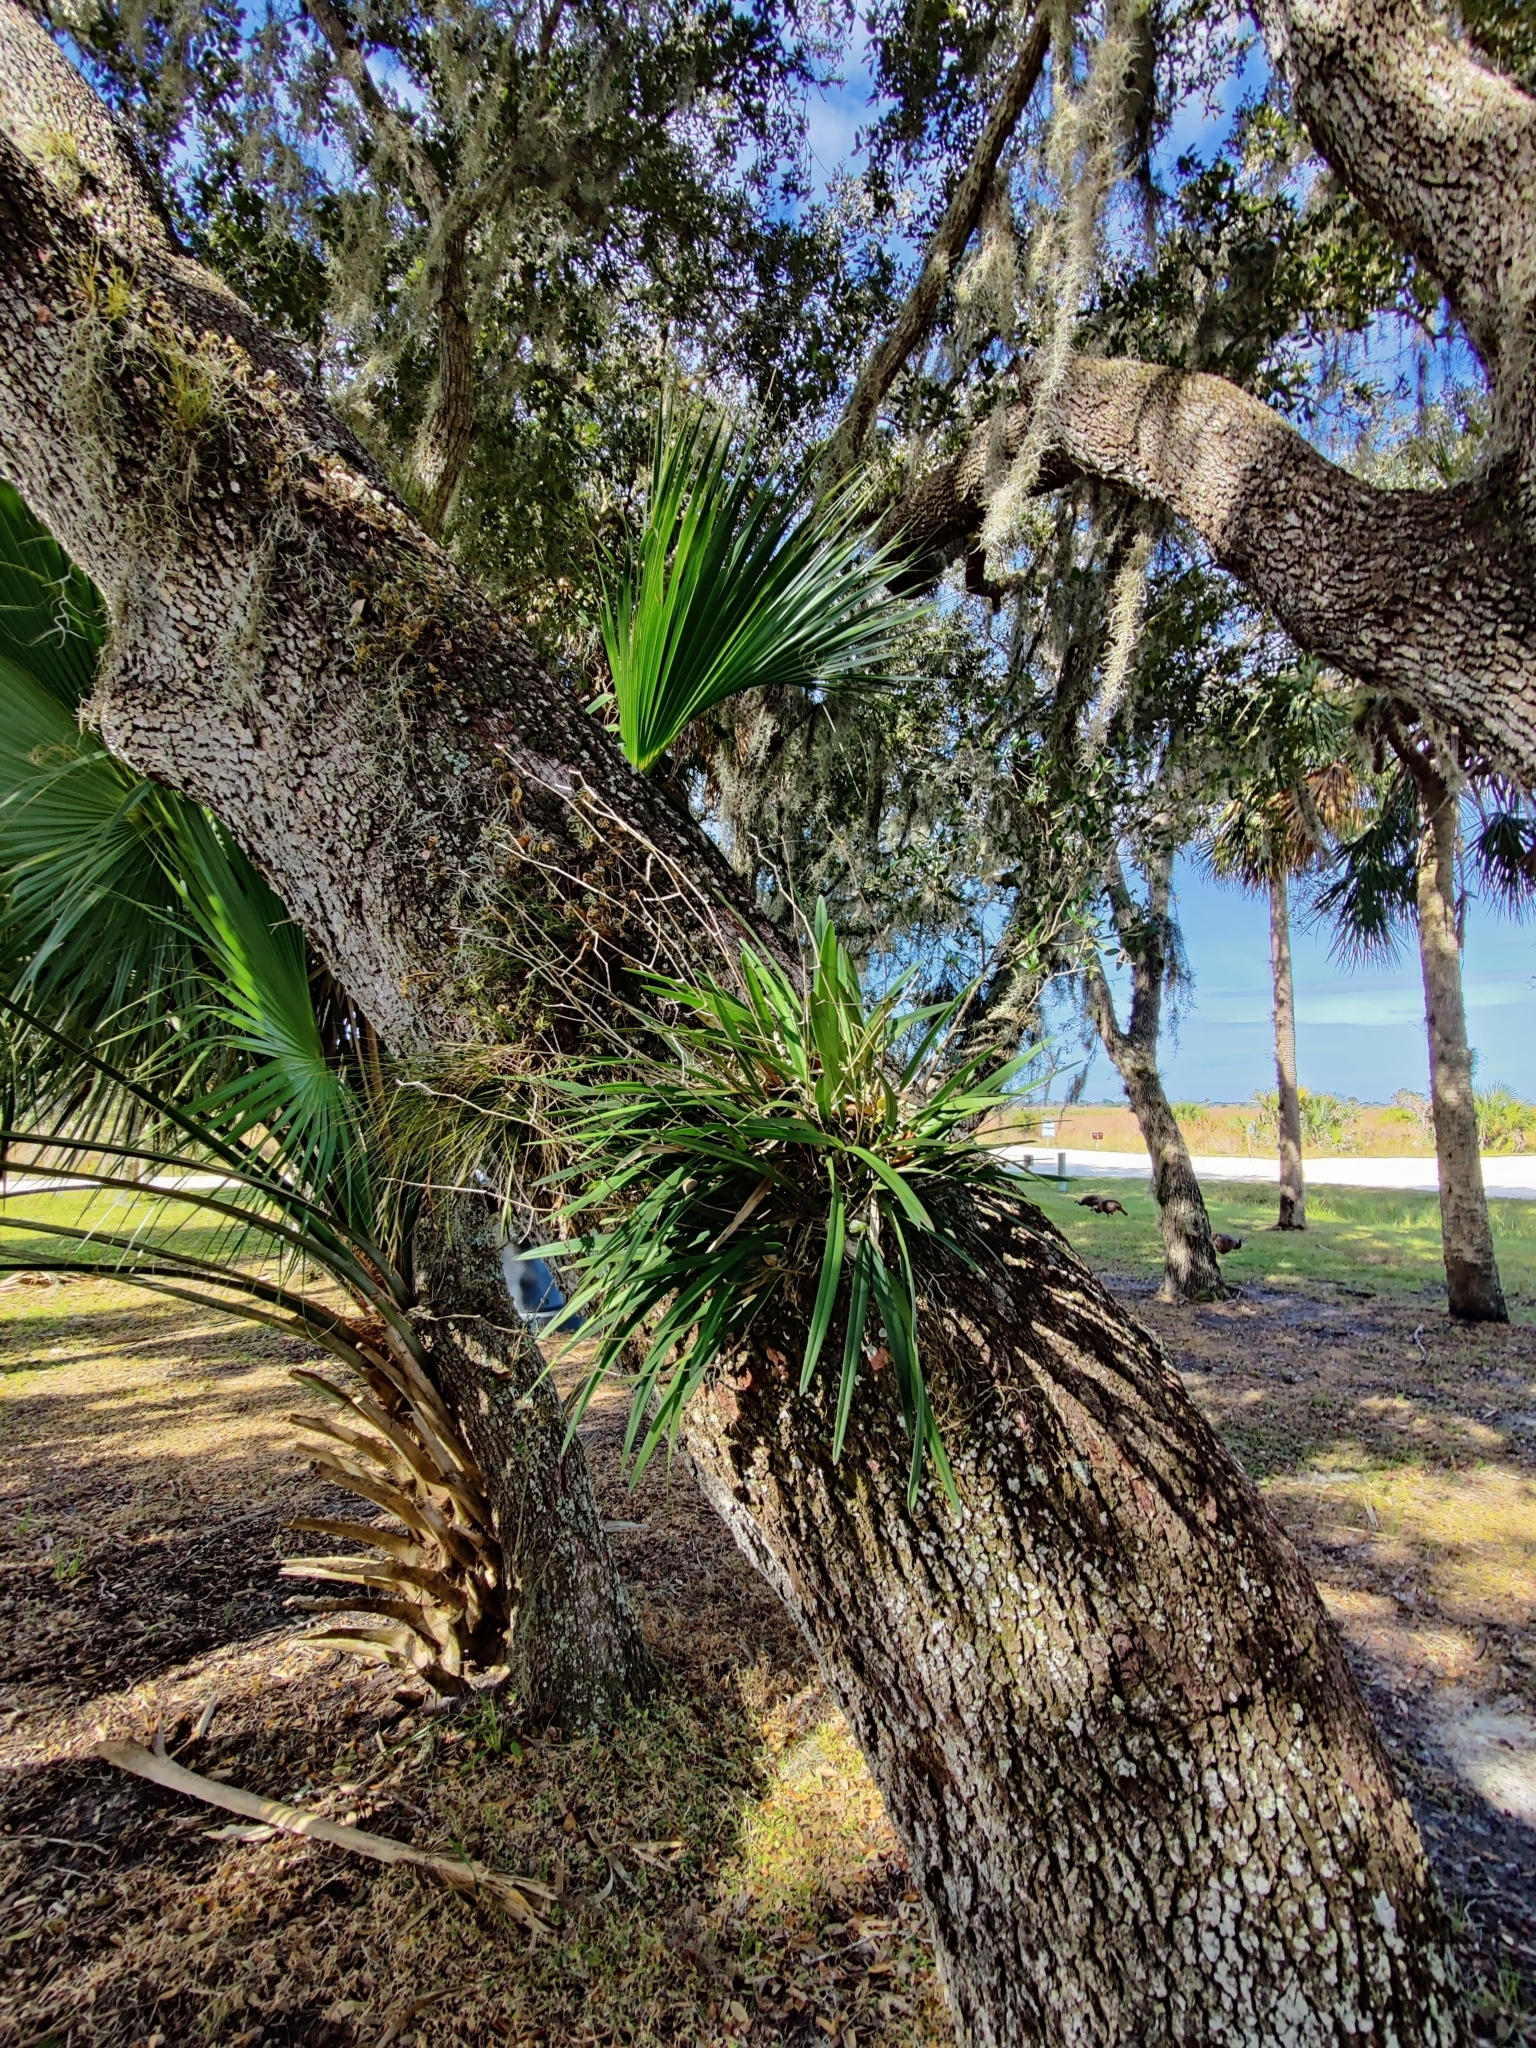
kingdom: Plantae
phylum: Tracheophyta
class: Liliopsida
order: Asparagales
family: Orchidaceae
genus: Encyclia
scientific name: Encyclia tampensis
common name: Florida butterfly orchid
